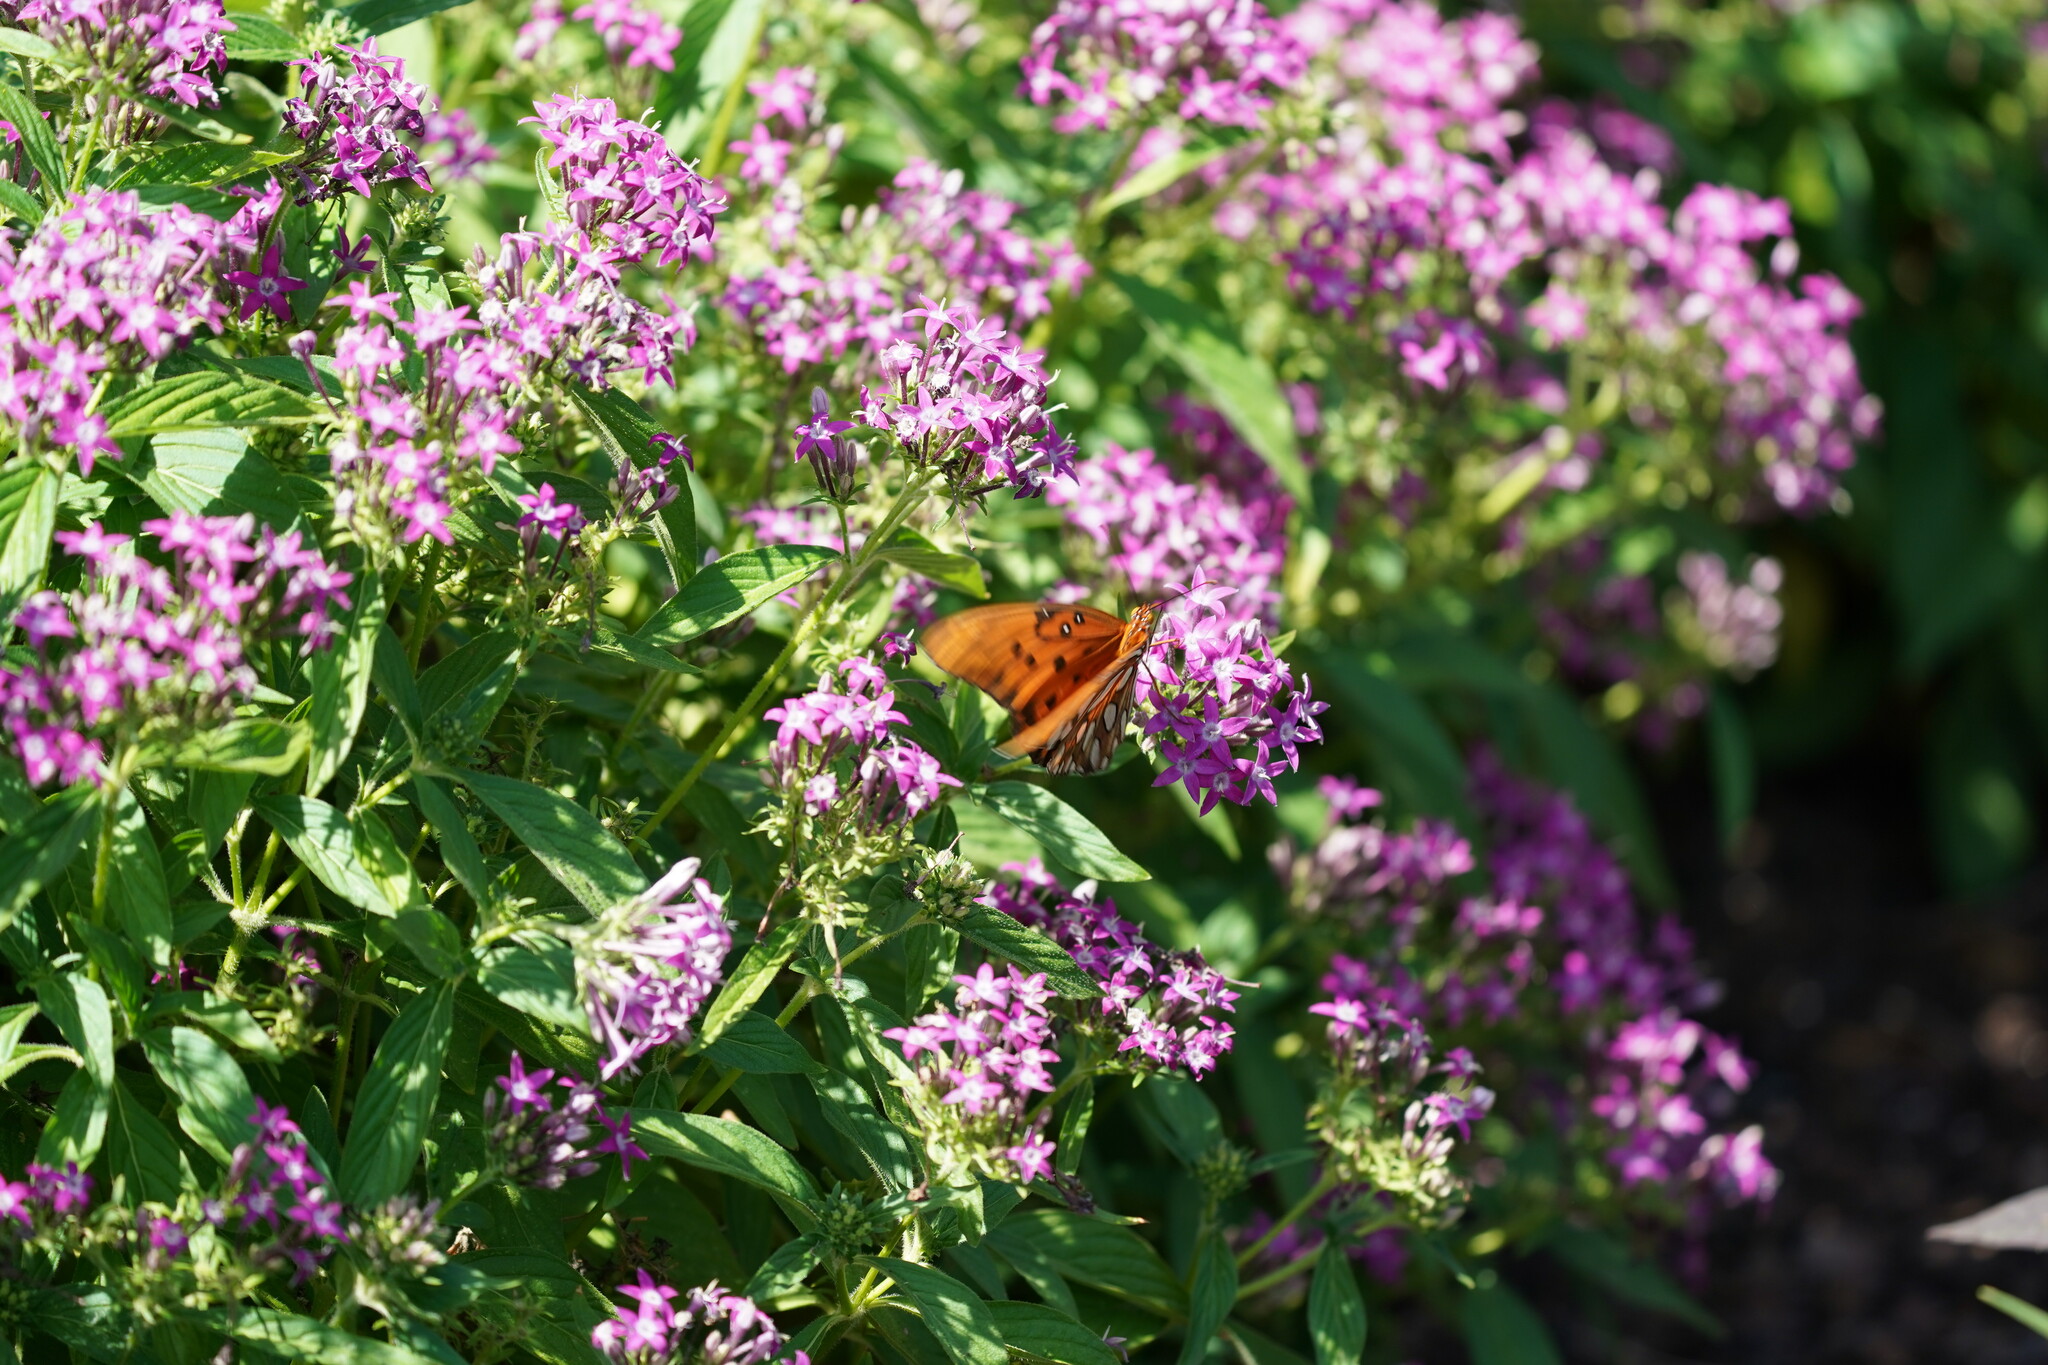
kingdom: Animalia
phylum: Arthropoda
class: Insecta
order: Lepidoptera
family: Nymphalidae
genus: Dione
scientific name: Dione vanillae
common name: Gulf fritillary
